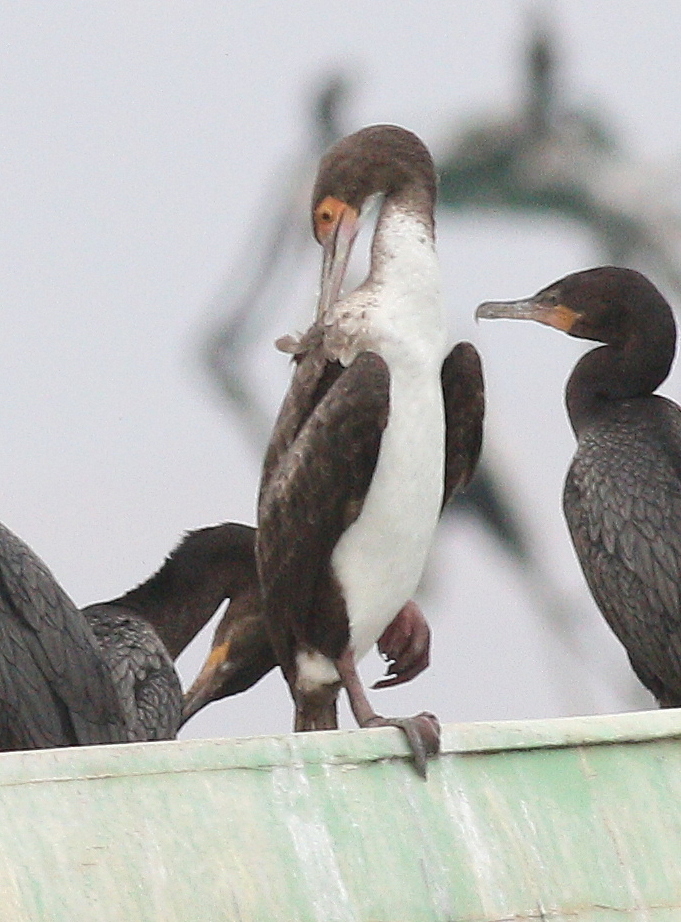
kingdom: Animalia
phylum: Chordata
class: Aves
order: Suliformes
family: Phalacrocoracidae
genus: Leucocarbo
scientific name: Leucocarbo bougainvillii
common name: Guanay cormorant
